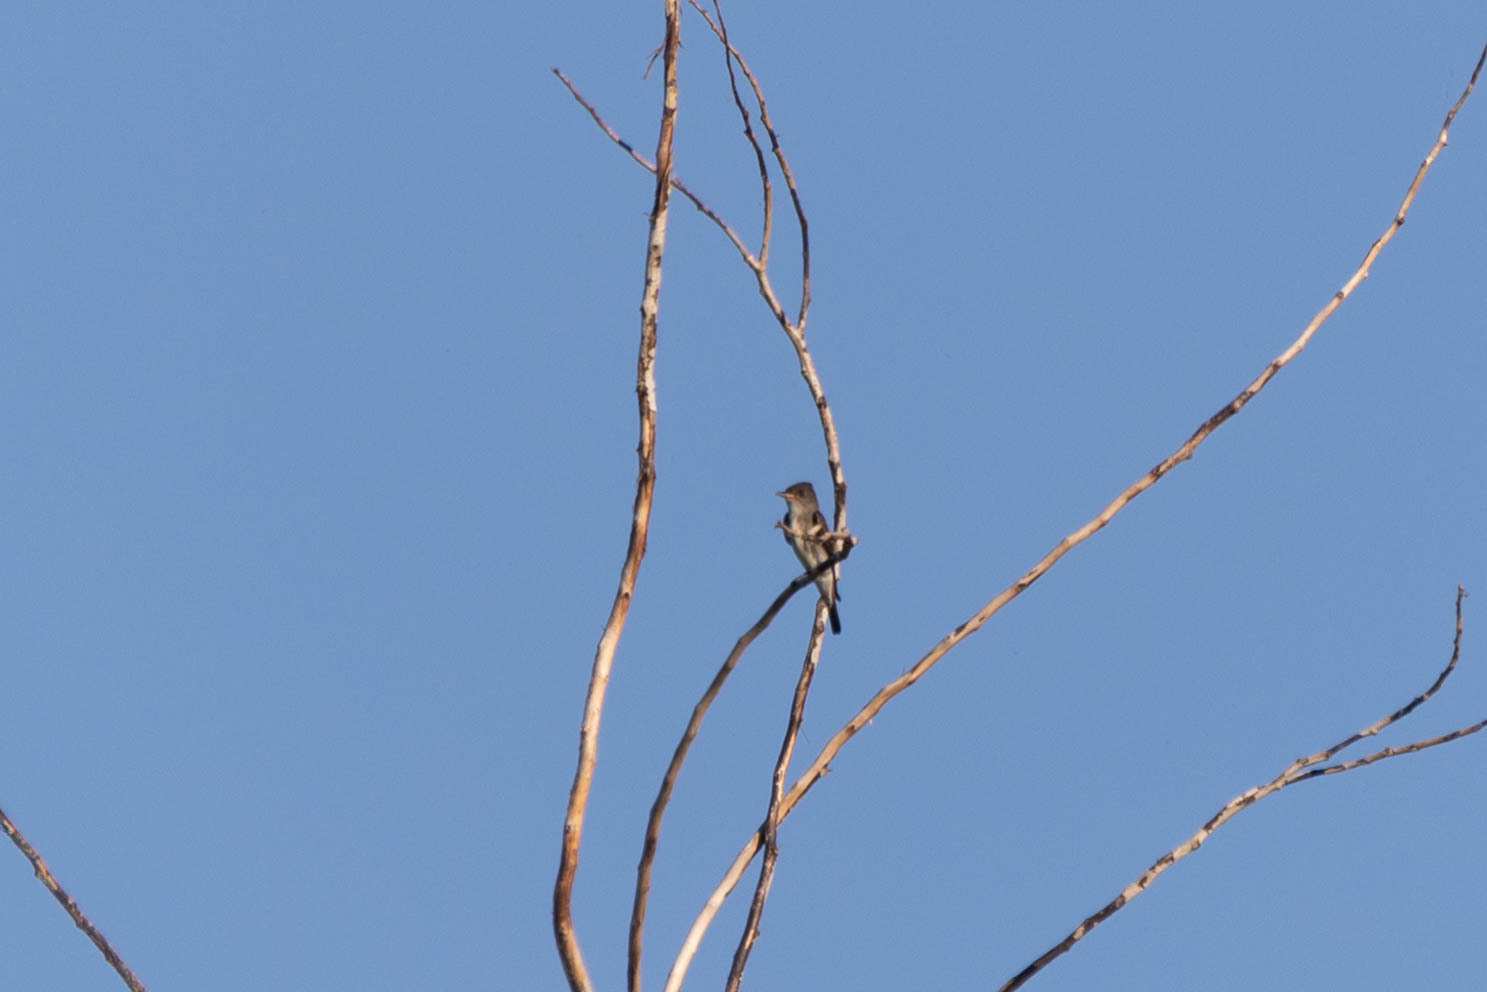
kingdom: Animalia
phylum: Chordata
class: Aves
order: Passeriformes
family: Tyrannidae
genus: Contopus
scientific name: Contopus cooperi
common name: Olive-sided flycatcher
